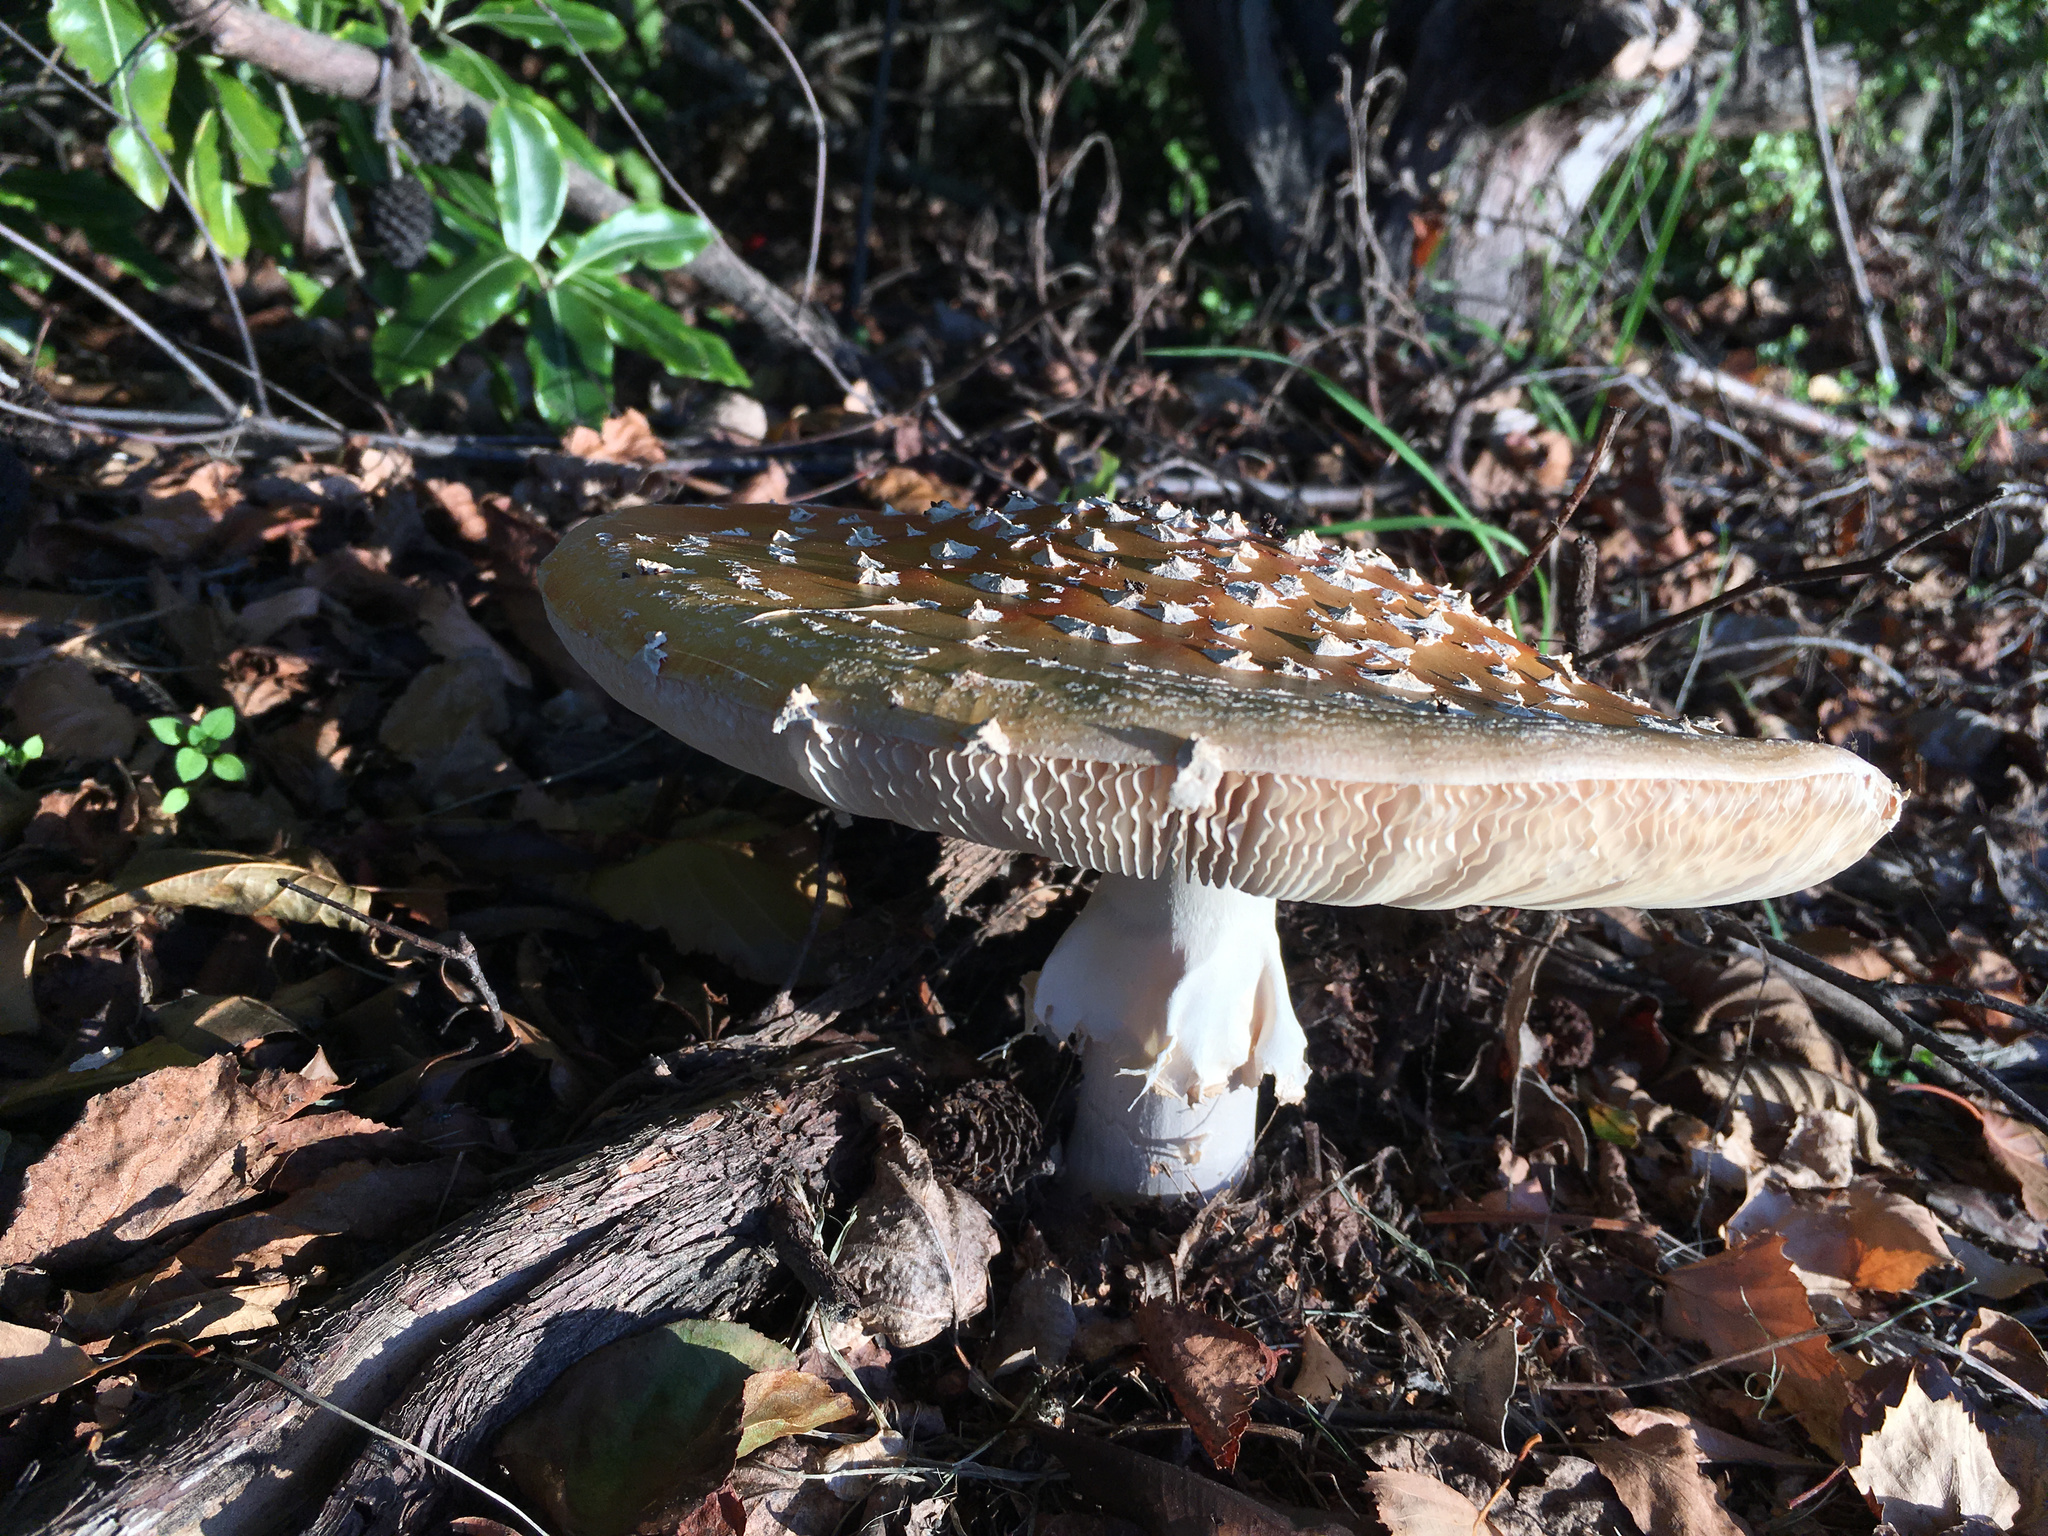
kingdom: Fungi
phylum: Basidiomycota
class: Agaricomycetes
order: Agaricales
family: Amanitaceae
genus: Amanita
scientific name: Amanita muscaria
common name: Fly agaric
